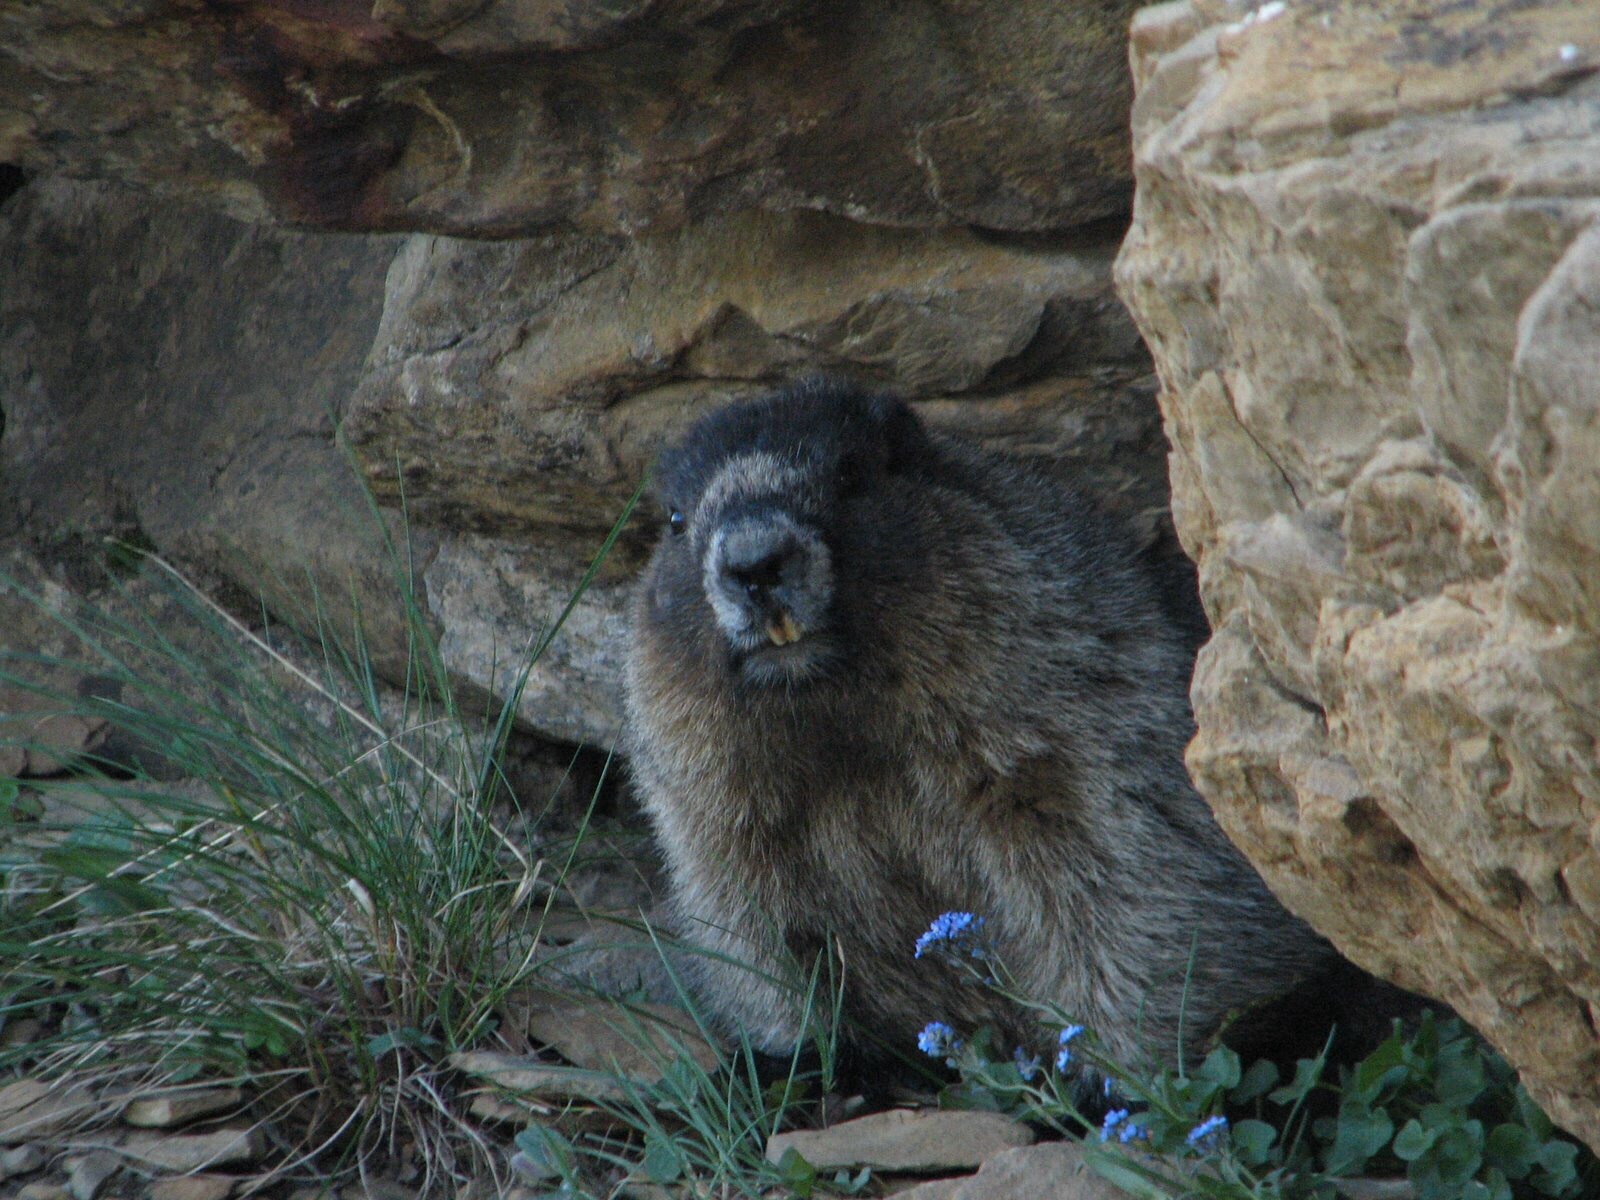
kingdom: Animalia
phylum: Chordata
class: Mammalia
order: Rodentia
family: Sciuridae
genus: Marmota
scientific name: Marmota caligata
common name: Hoary marmot
